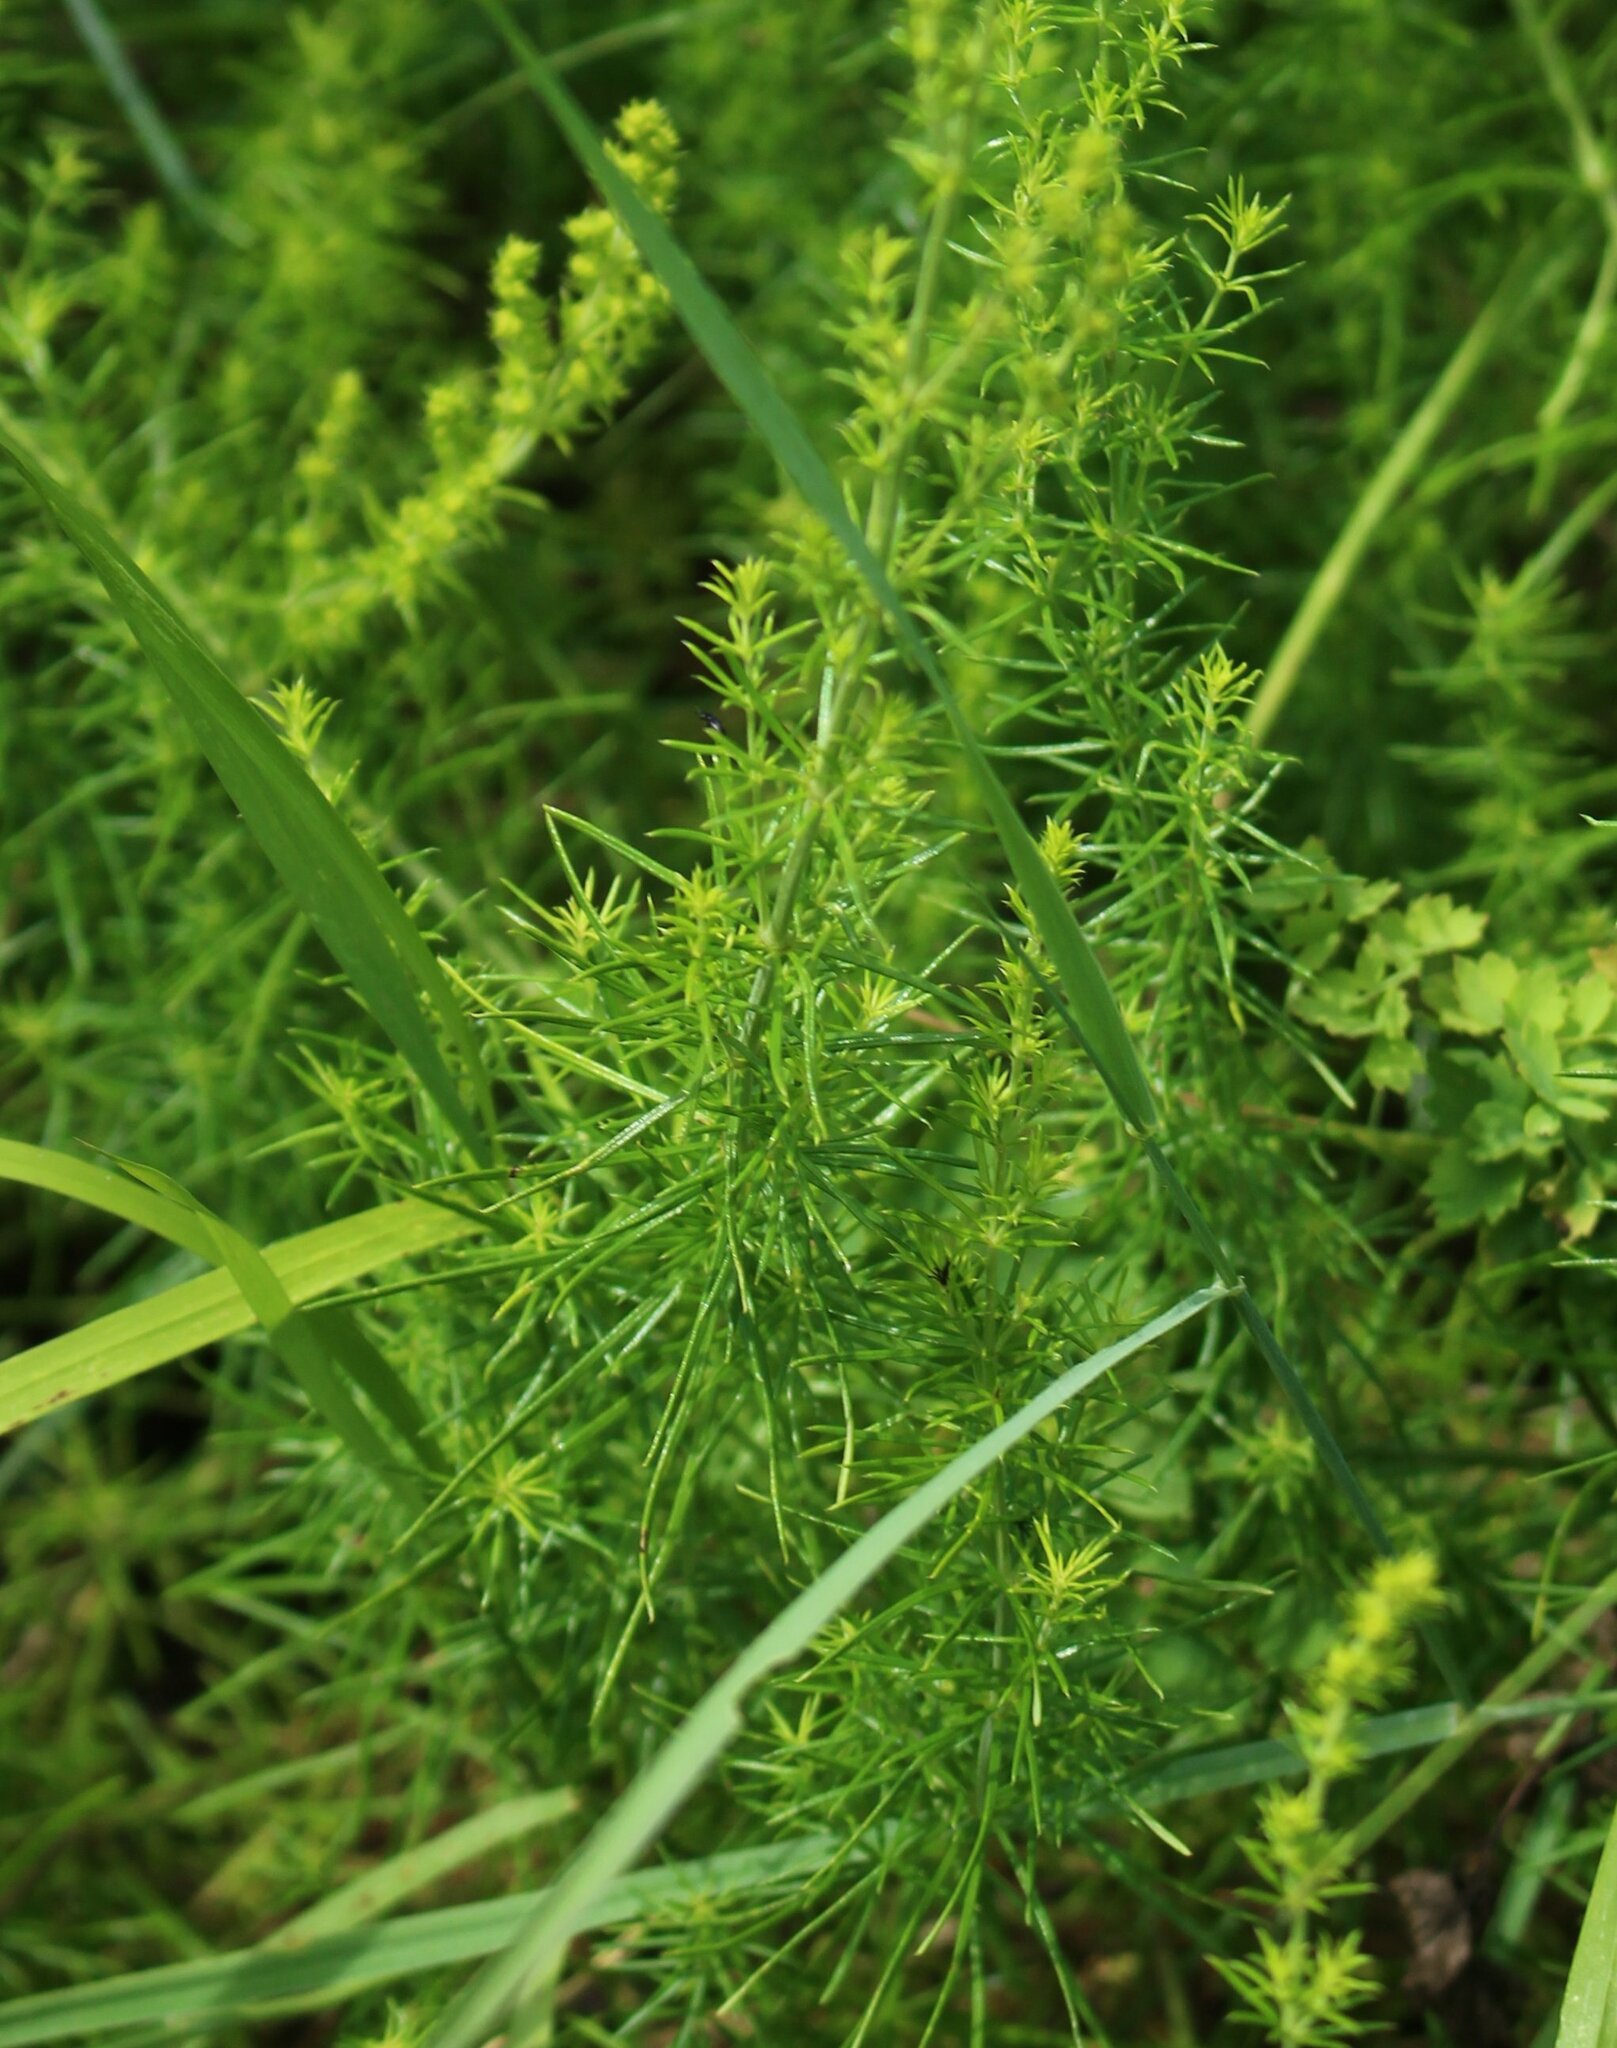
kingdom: Plantae
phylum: Tracheophyta
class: Magnoliopsida
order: Gentianales
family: Rubiaceae
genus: Galium
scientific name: Galium verum
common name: Lady's bedstraw
